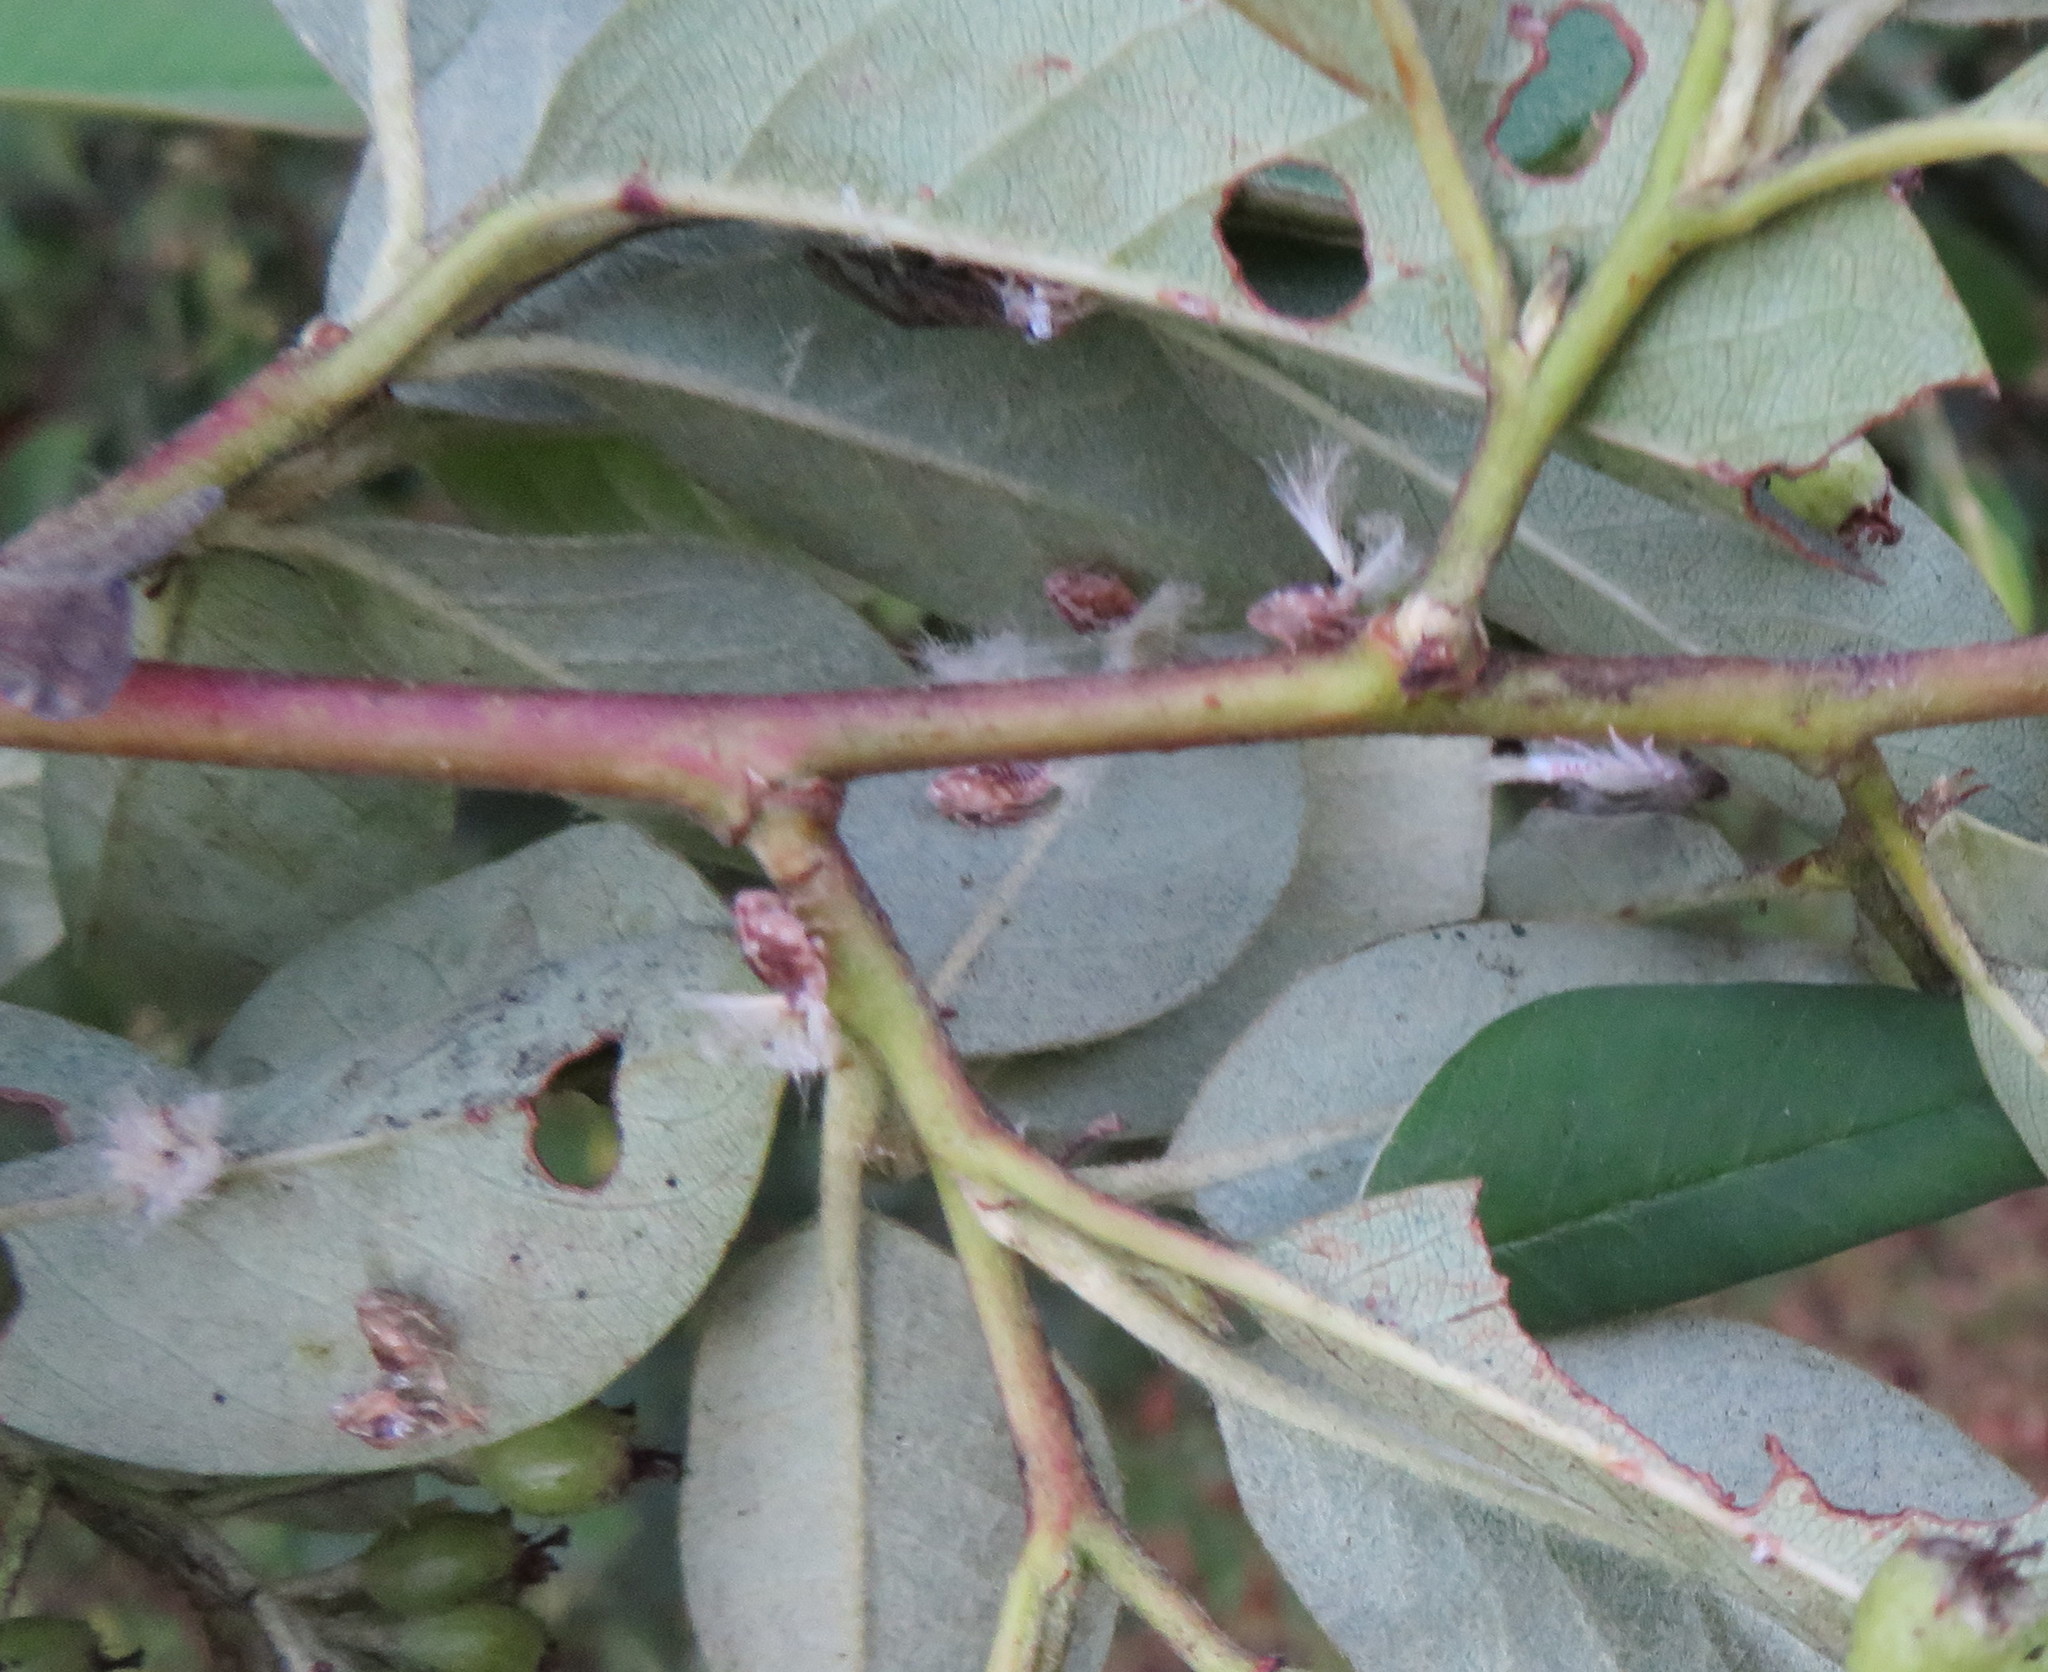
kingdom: Animalia
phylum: Arthropoda
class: Insecta
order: Hemiptera
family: Ricaniidae
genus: Scolypopa
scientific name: Scolypopa australis
